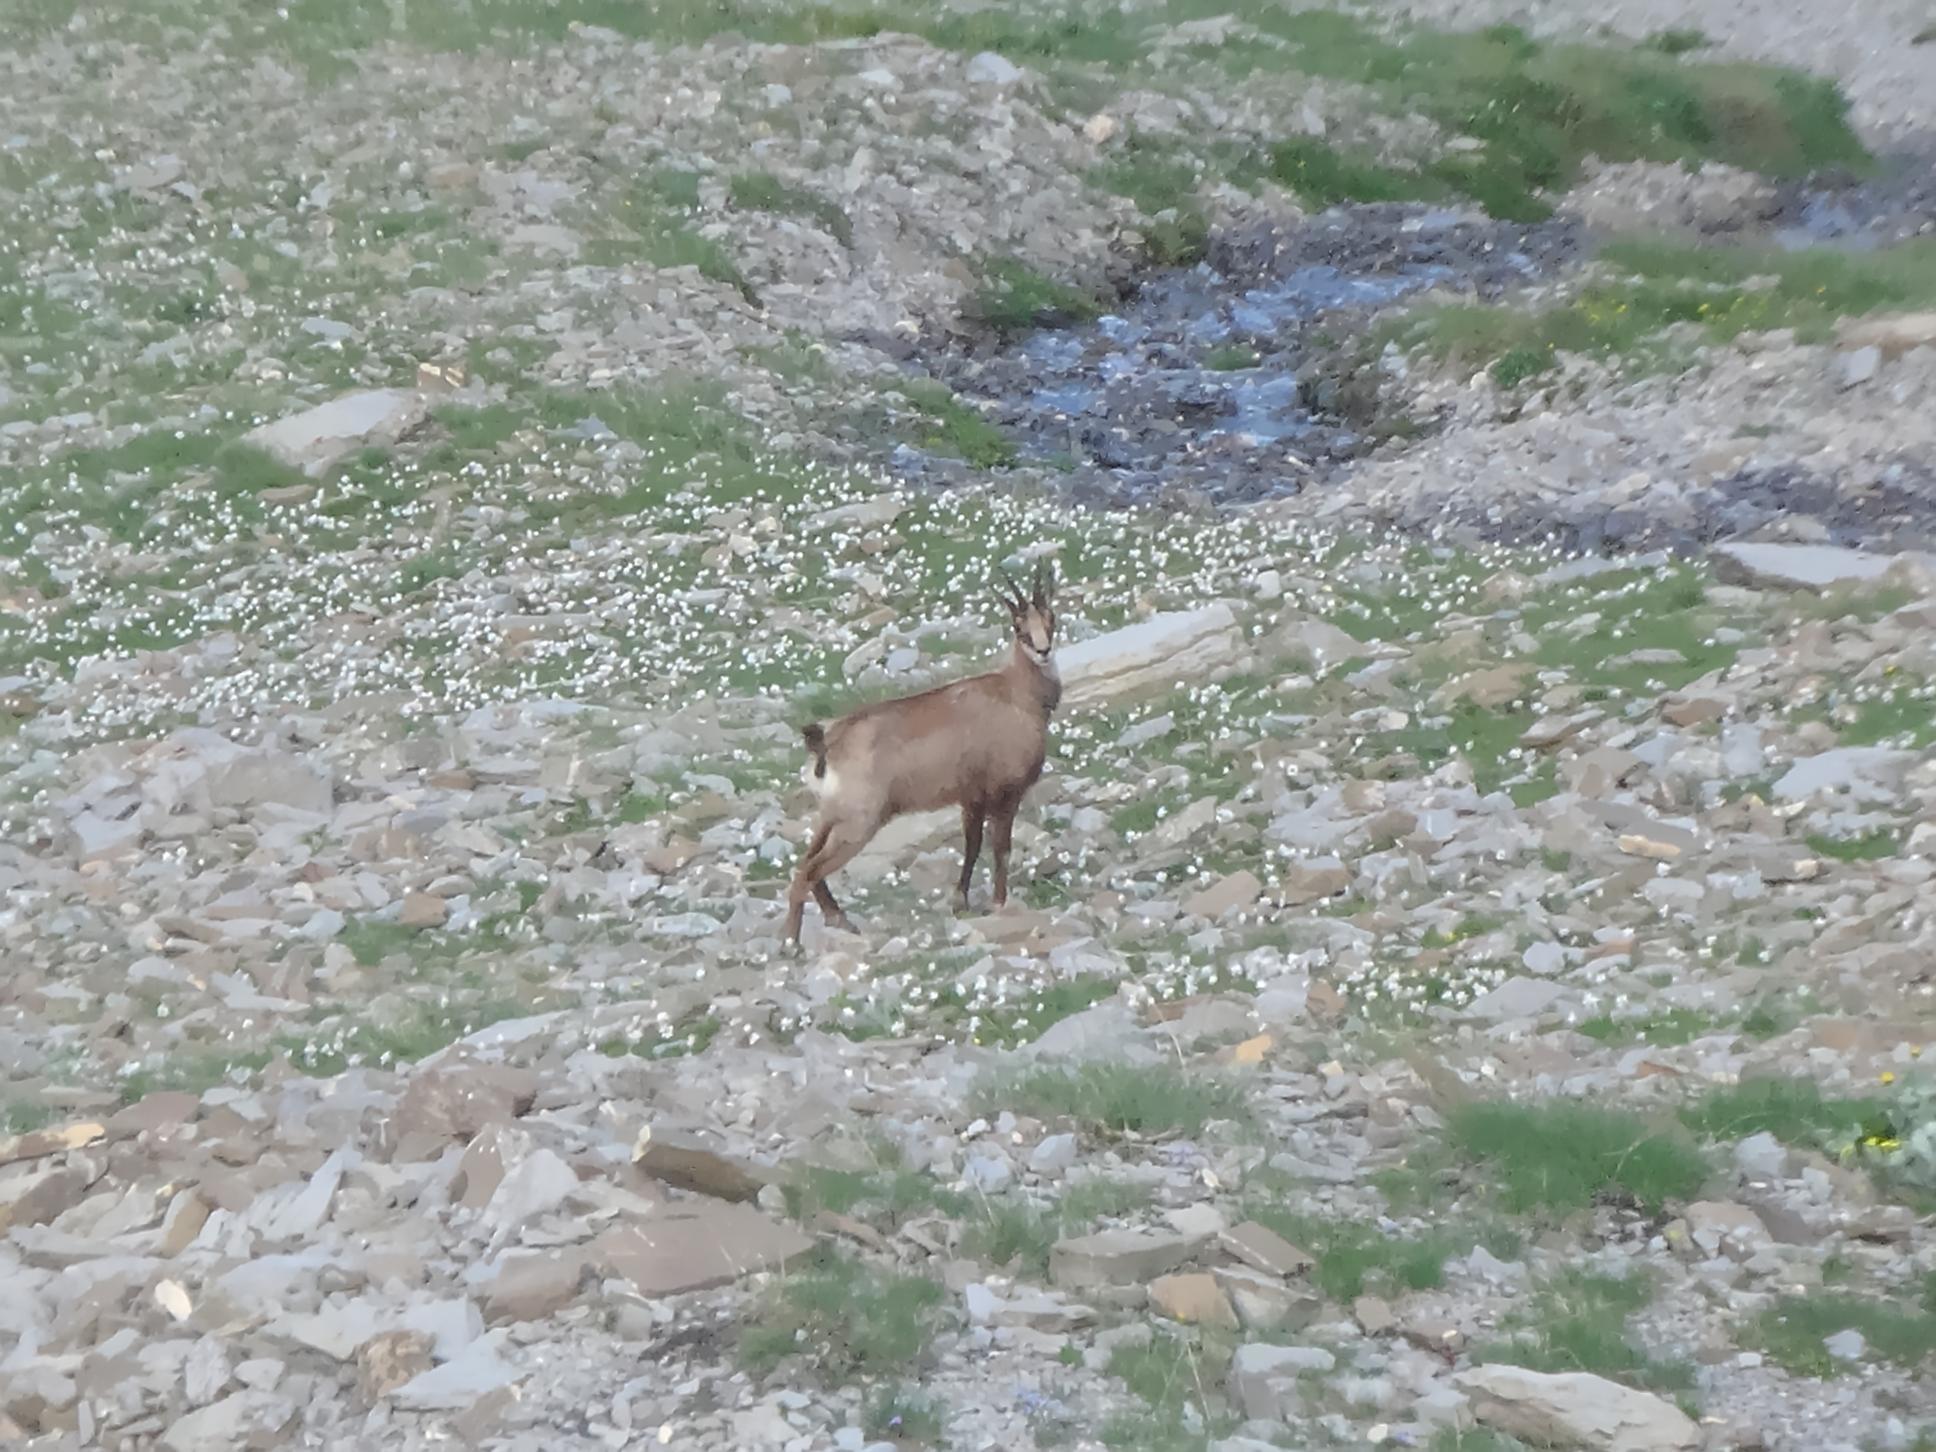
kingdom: Animalia
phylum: Chordata
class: Mammalia
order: Artiodactyla
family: Bovidae
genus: Rupicapra
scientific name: Rupicapra rupicapra
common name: Chamois
